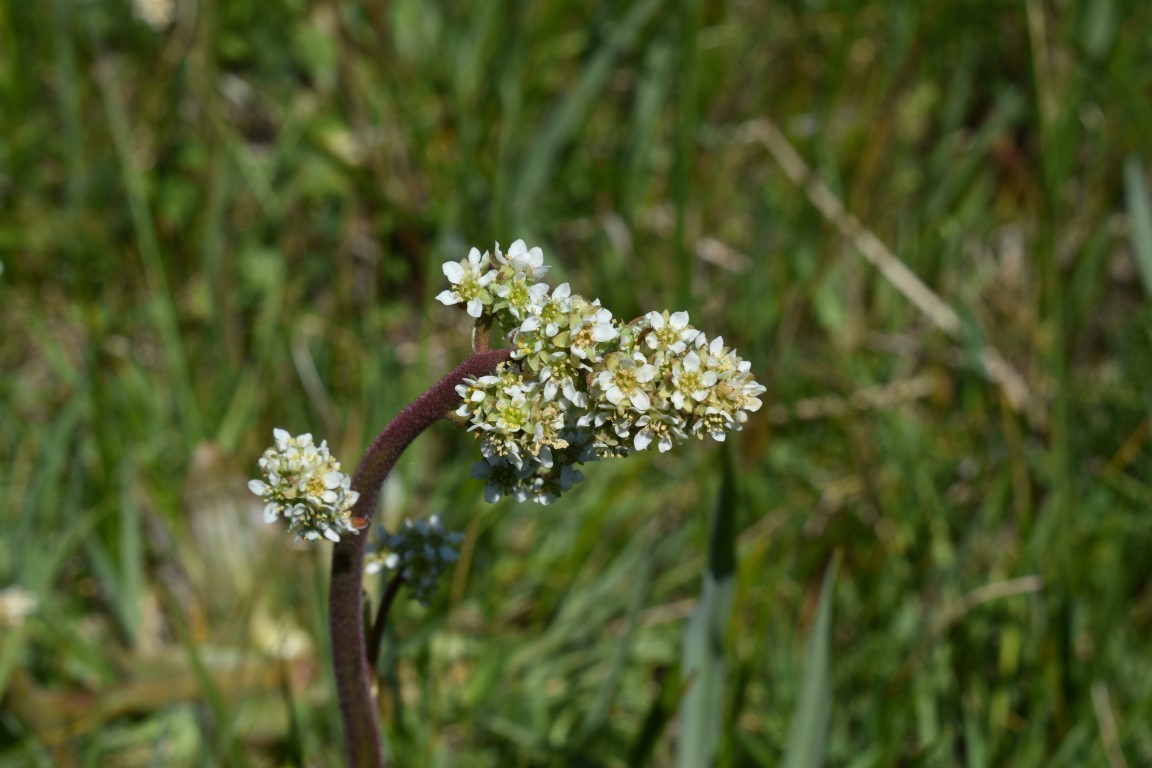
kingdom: Plantae
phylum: Tracheophyta
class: Magnoliopsida
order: Saxifragales
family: Saxifragaceae
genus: Micranthes
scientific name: Micranthes oregana
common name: Bog saxifrage
